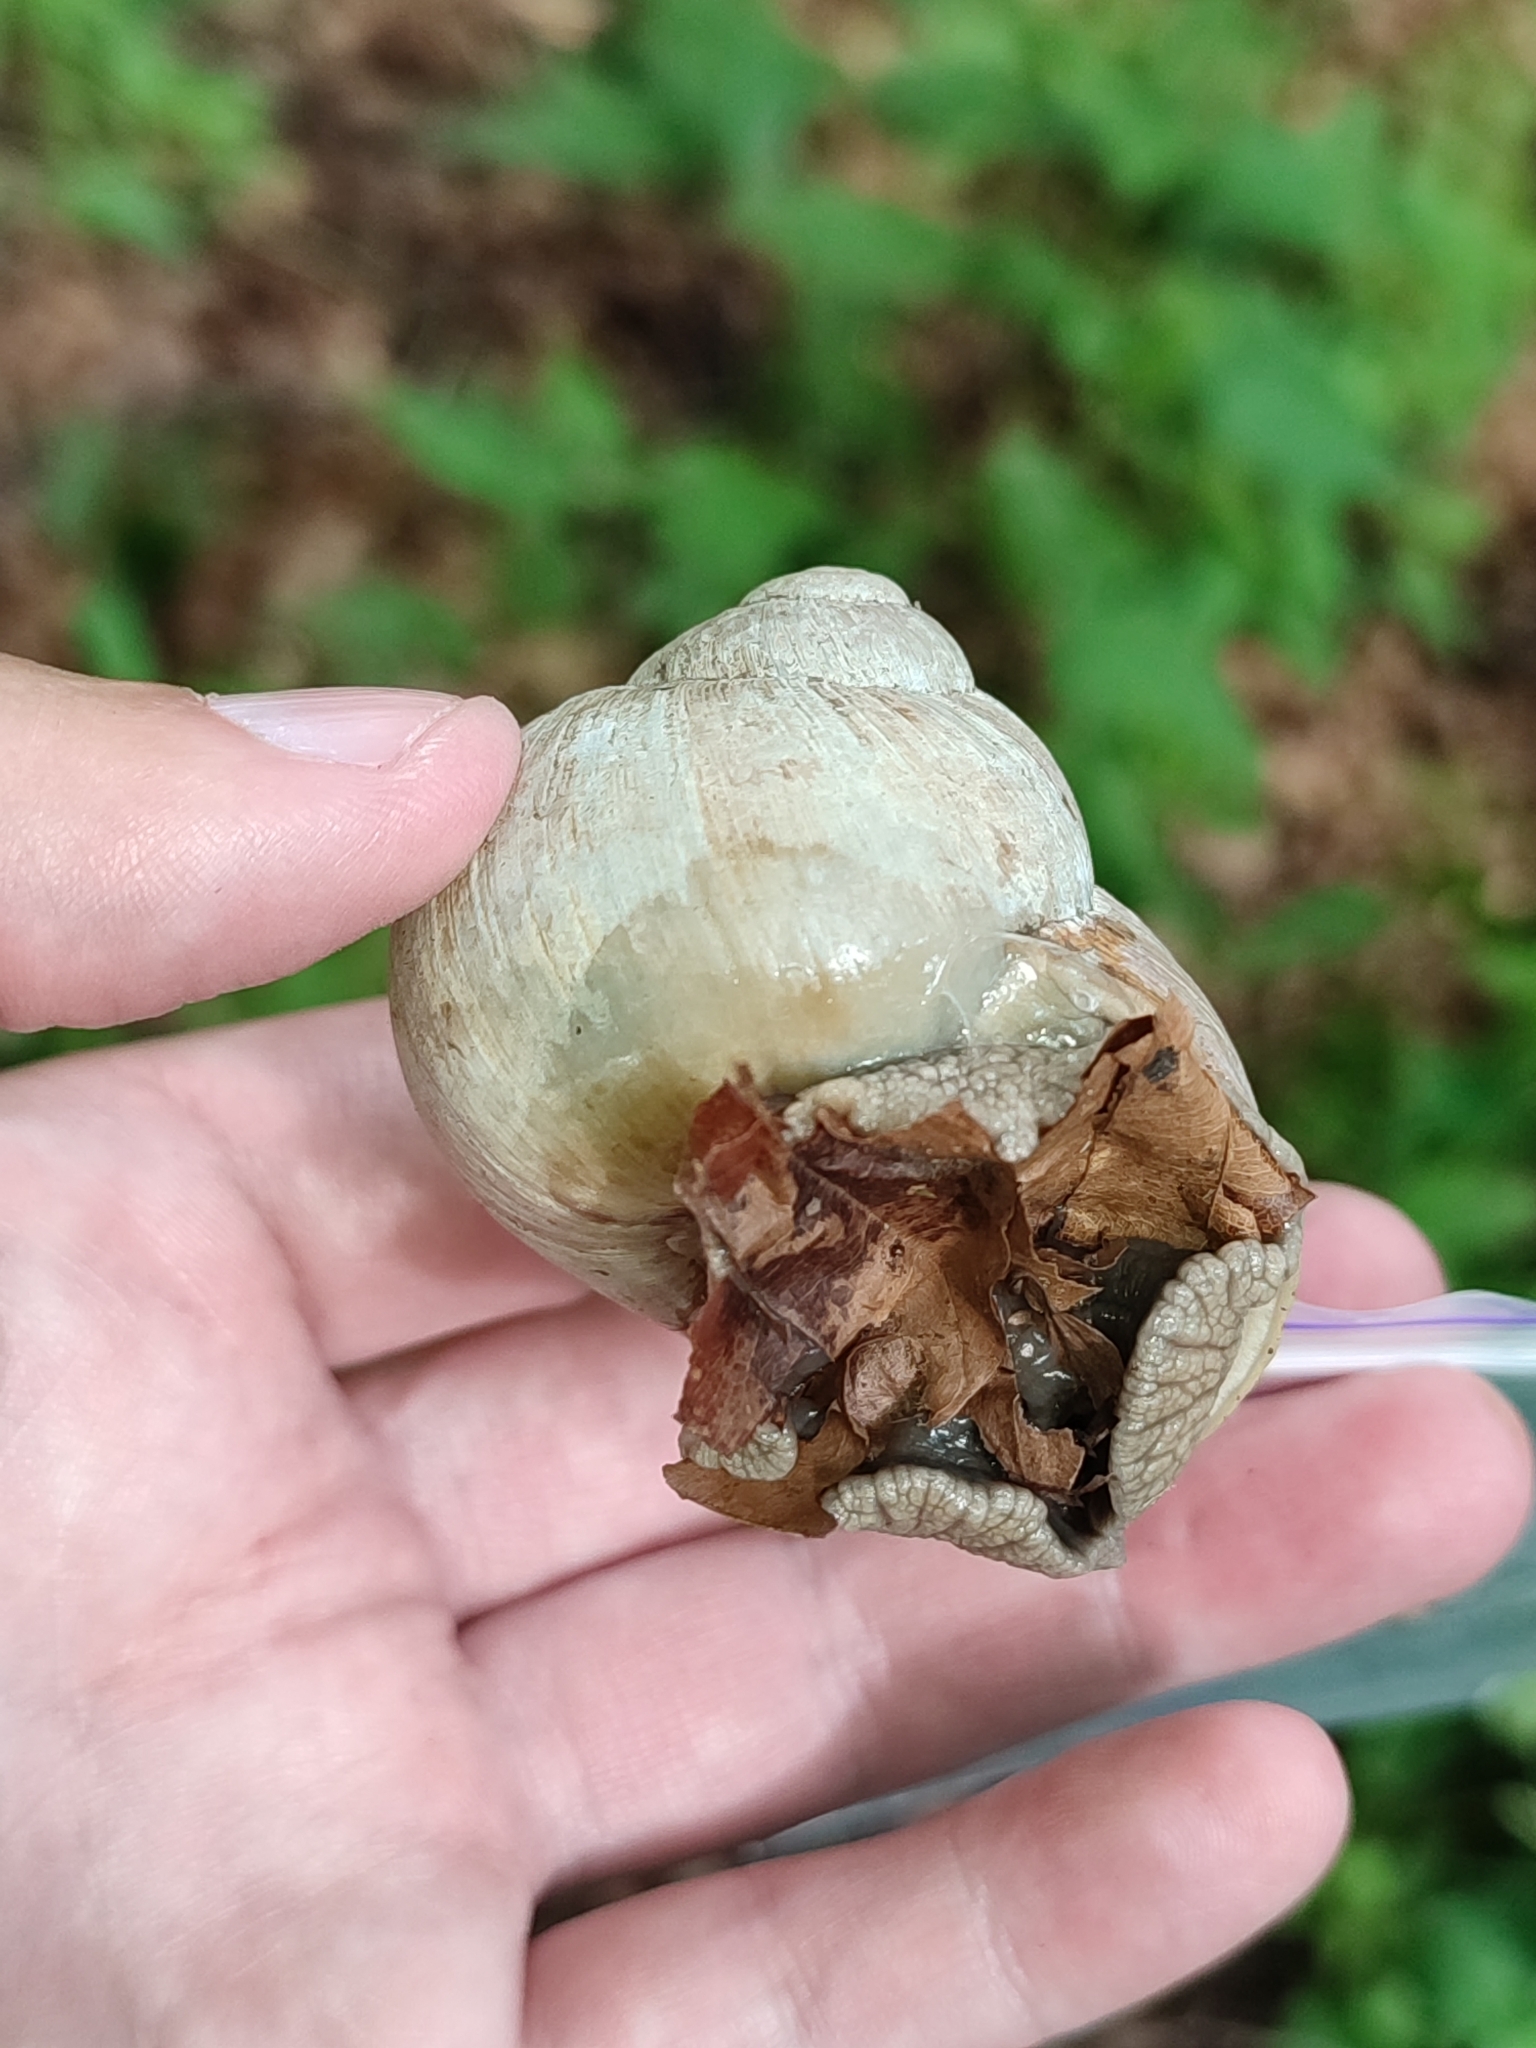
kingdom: Animalia
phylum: Mollusca
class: Gastropoda
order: Stylommatophora
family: Helicidae
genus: Helix
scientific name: Helix pomatia
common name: Roman snail
